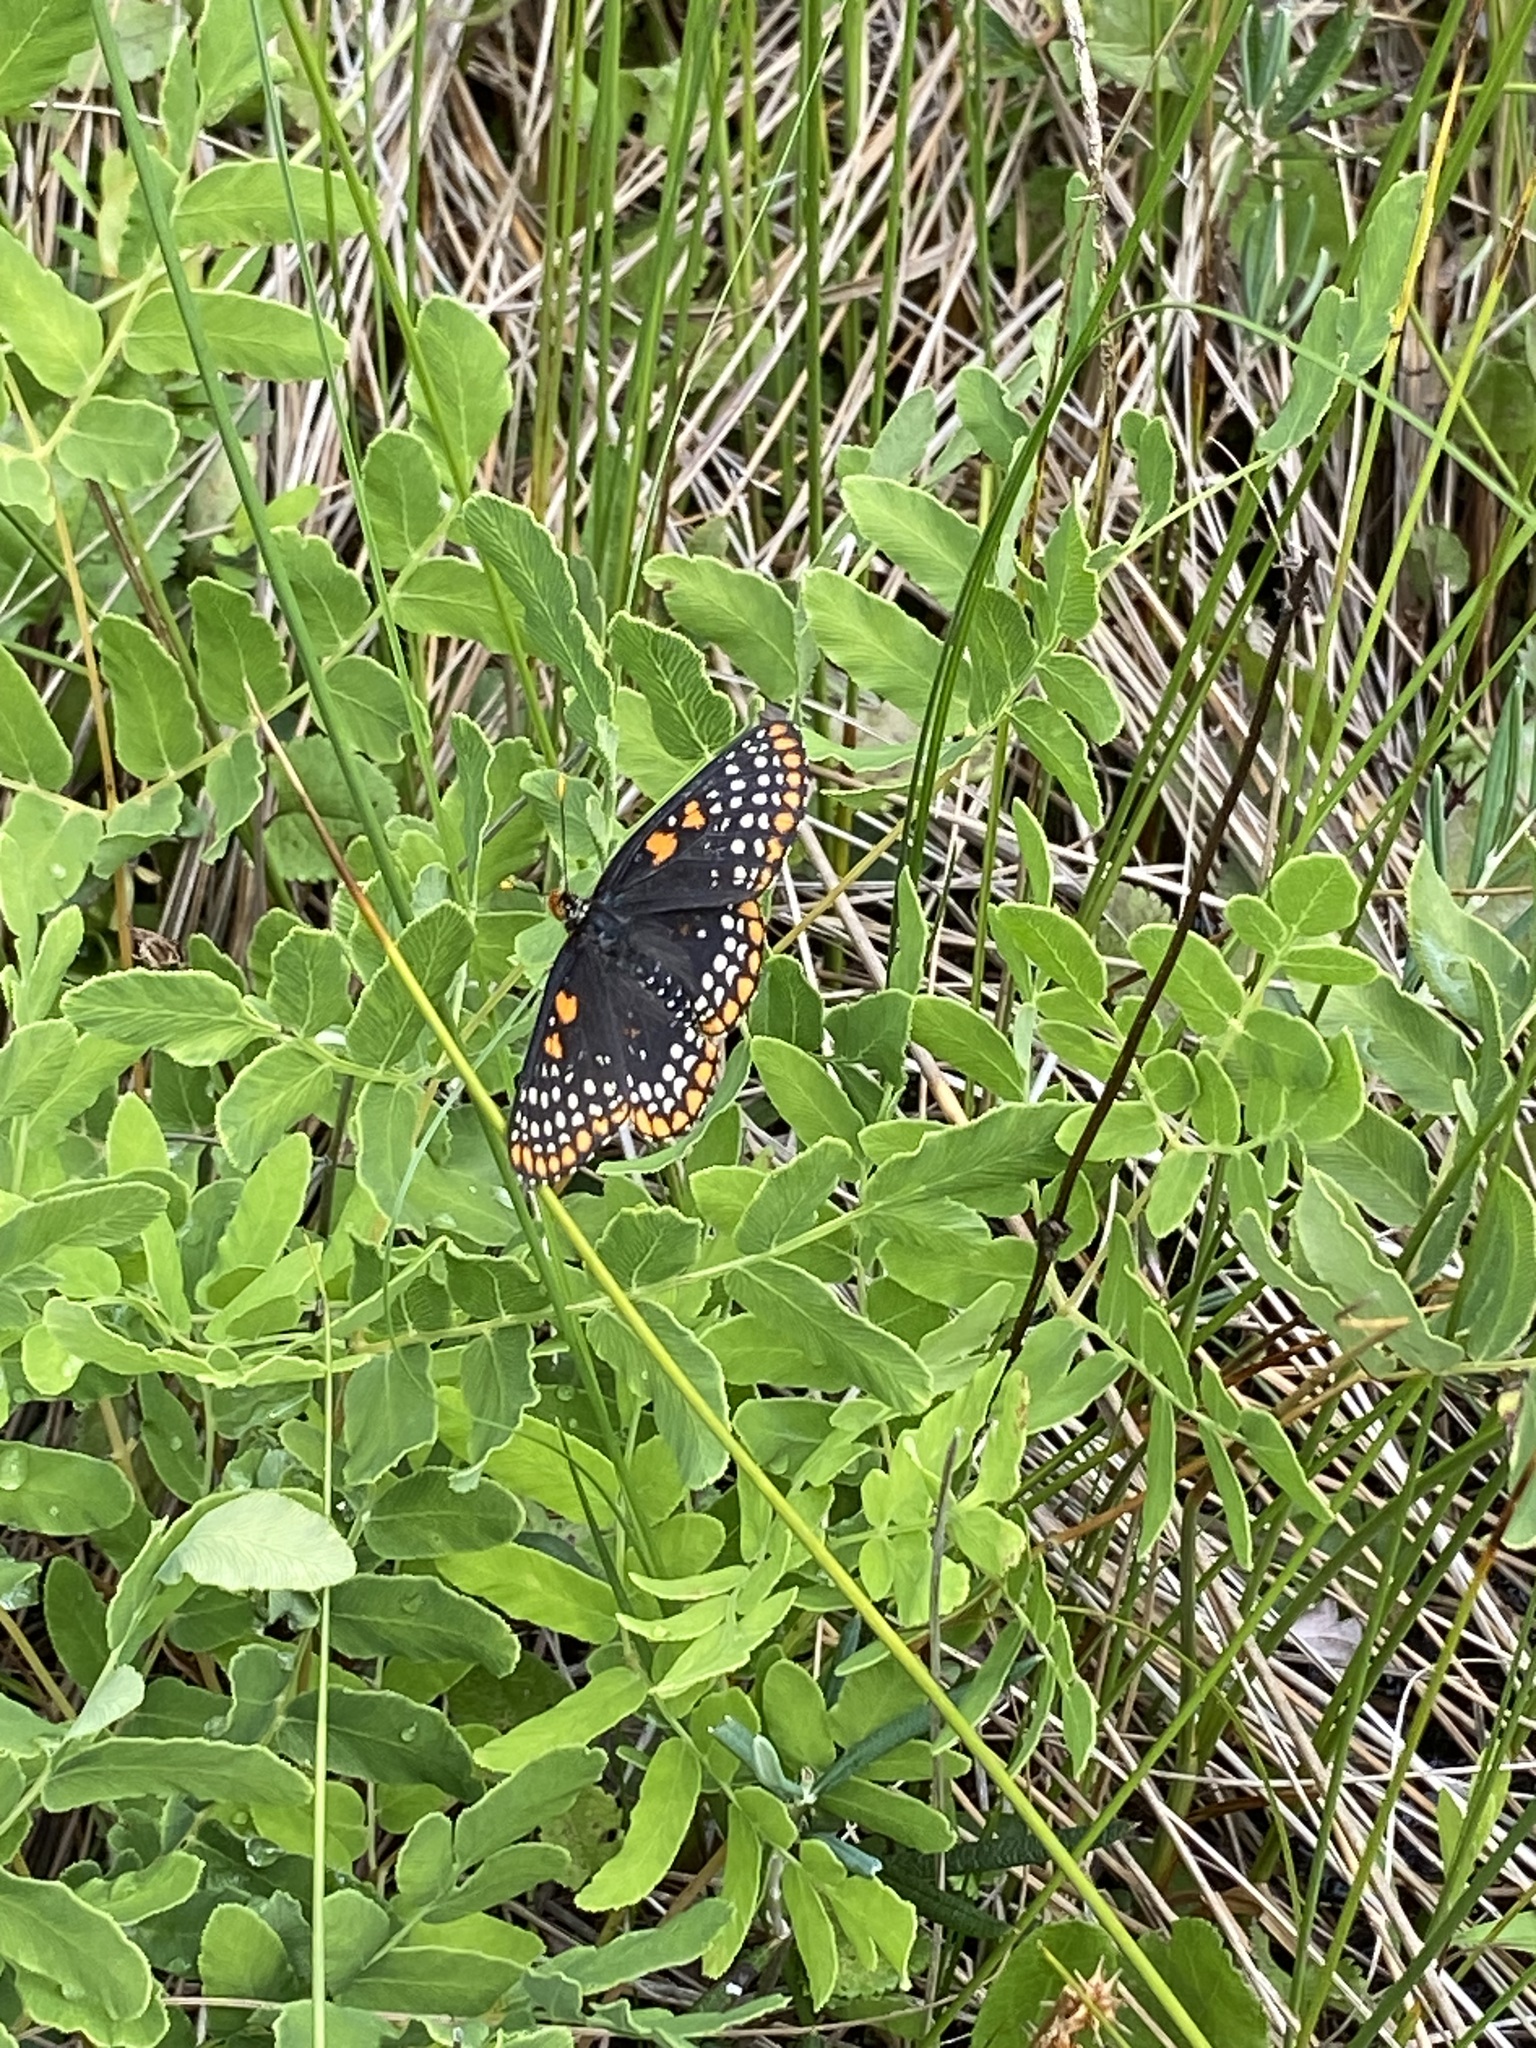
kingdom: Animalia
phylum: Arthropoda
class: Insecta
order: Lepidoptera
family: Nymphalidae
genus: Euphydryas
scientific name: Euphydryas phaeton
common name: Baltimore checkerspot
